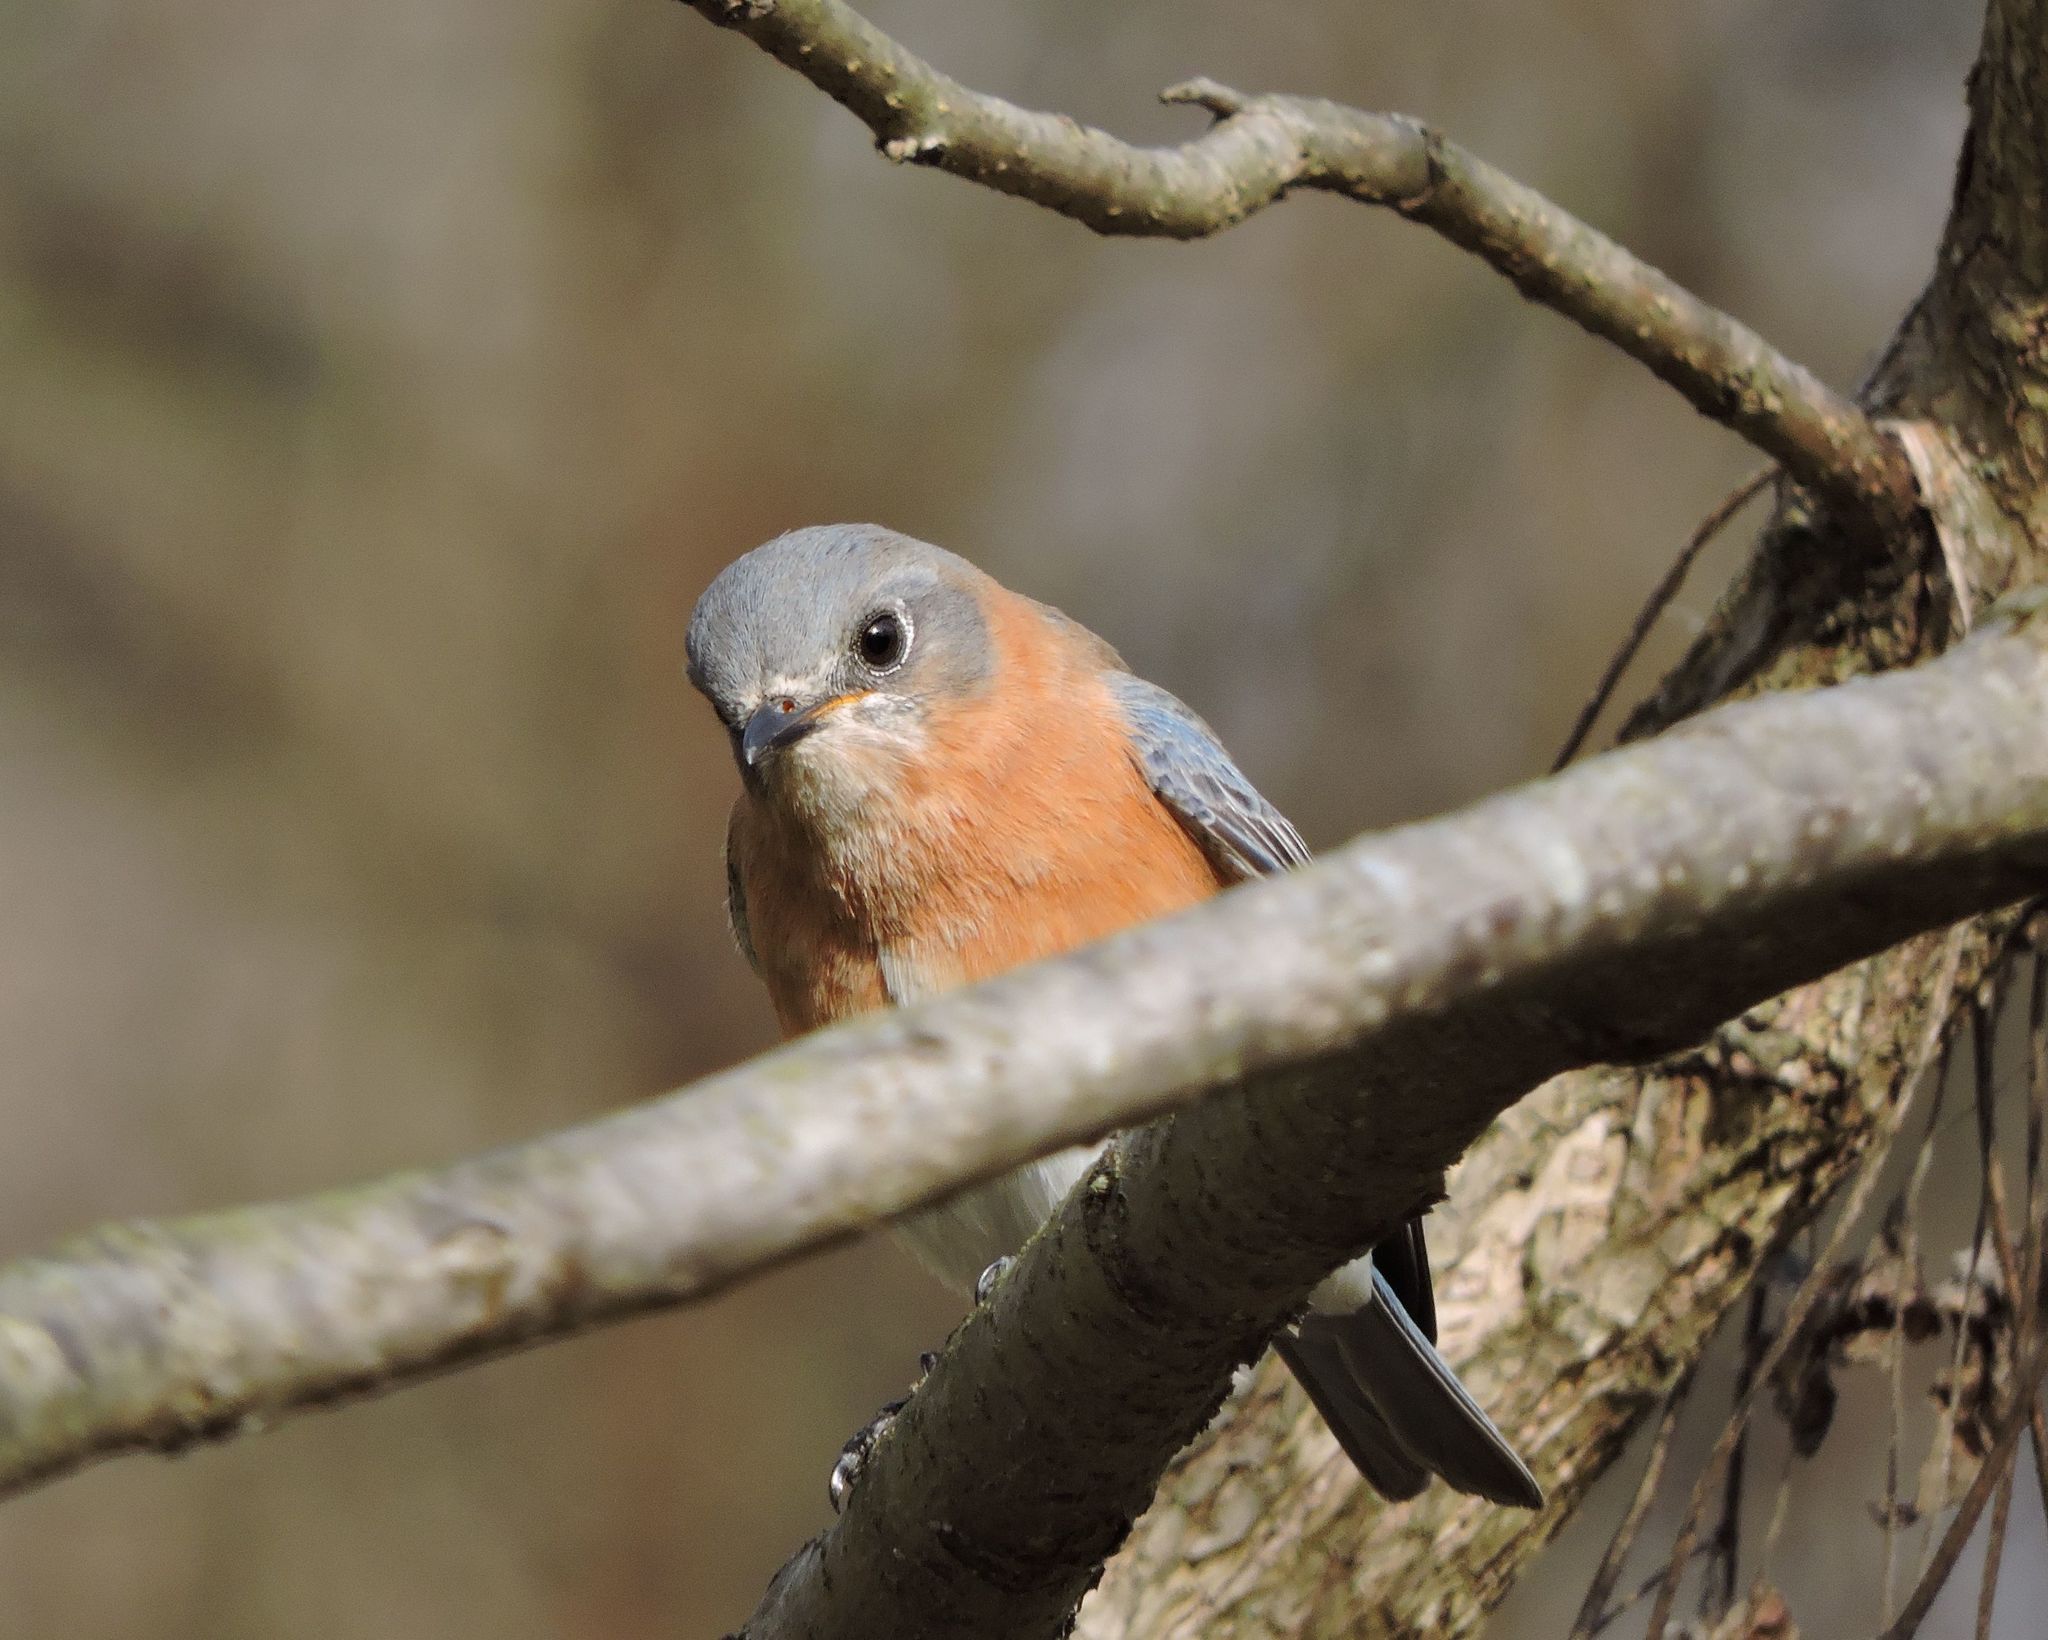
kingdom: Animalia
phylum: Chordata
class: Aves
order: Passeriformes
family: Turdidae
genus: Sialia
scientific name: Sialia sialis
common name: Eastern bluebird
